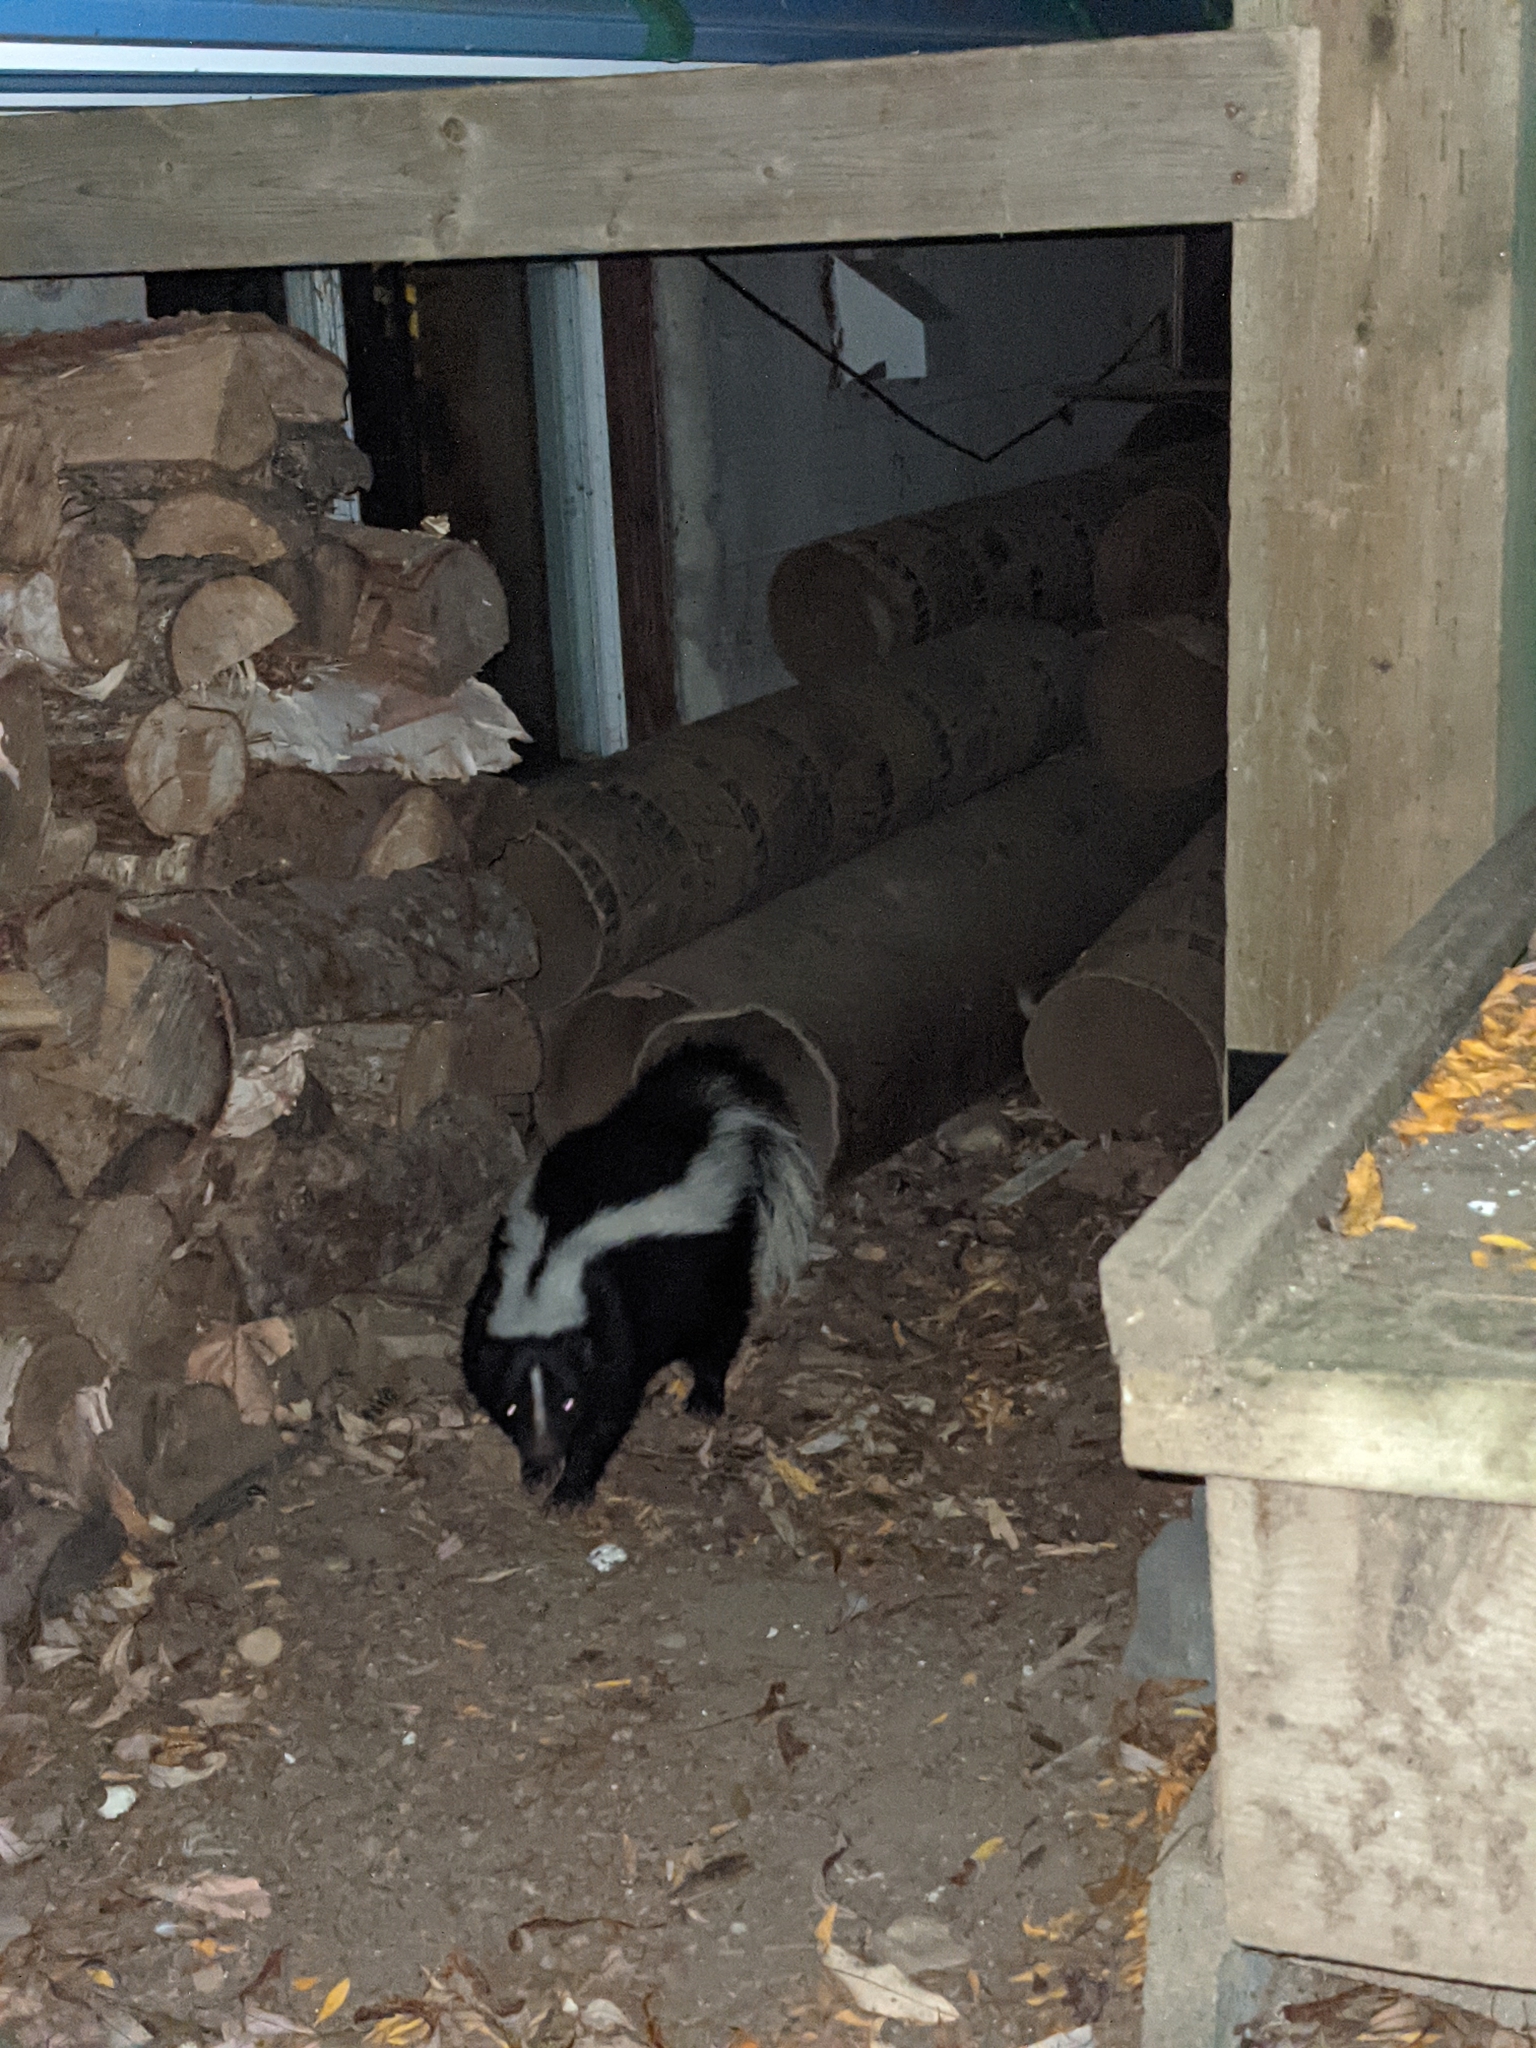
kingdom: Animalia
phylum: Chordata
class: Mammalia
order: Carnivora
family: Mephitidae
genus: Mephitis
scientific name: Mephitis mephitis
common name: Striped skunk
